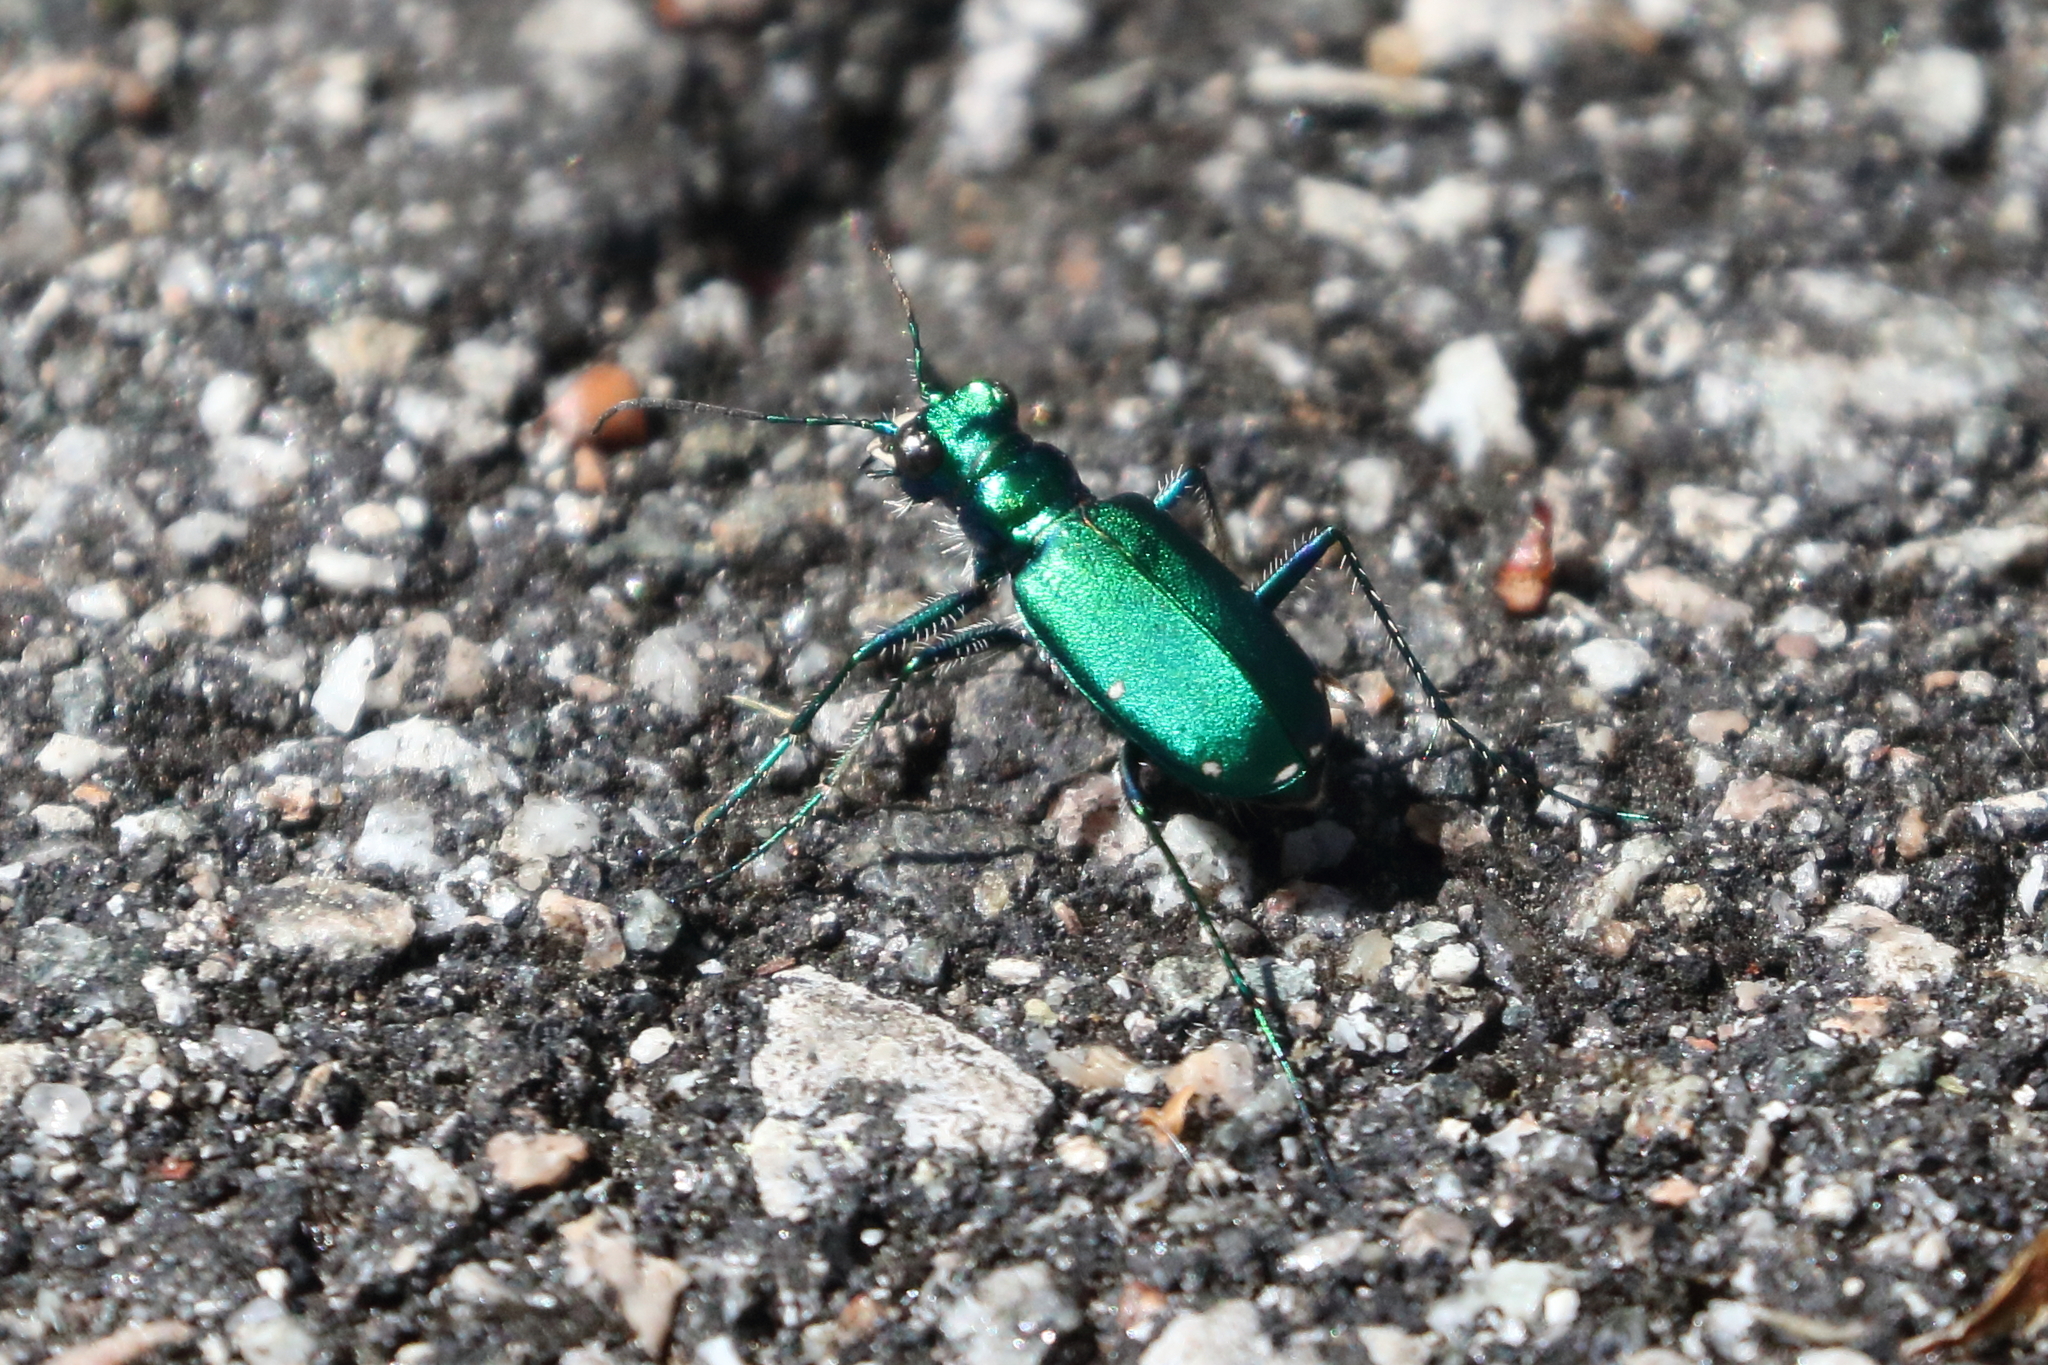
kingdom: Animalia
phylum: Arthropoda
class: Insecta
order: Coleoptera
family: Carabidae
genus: Cicindela
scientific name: Cicindela sexguttata
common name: Six-spotted tiger beetle
